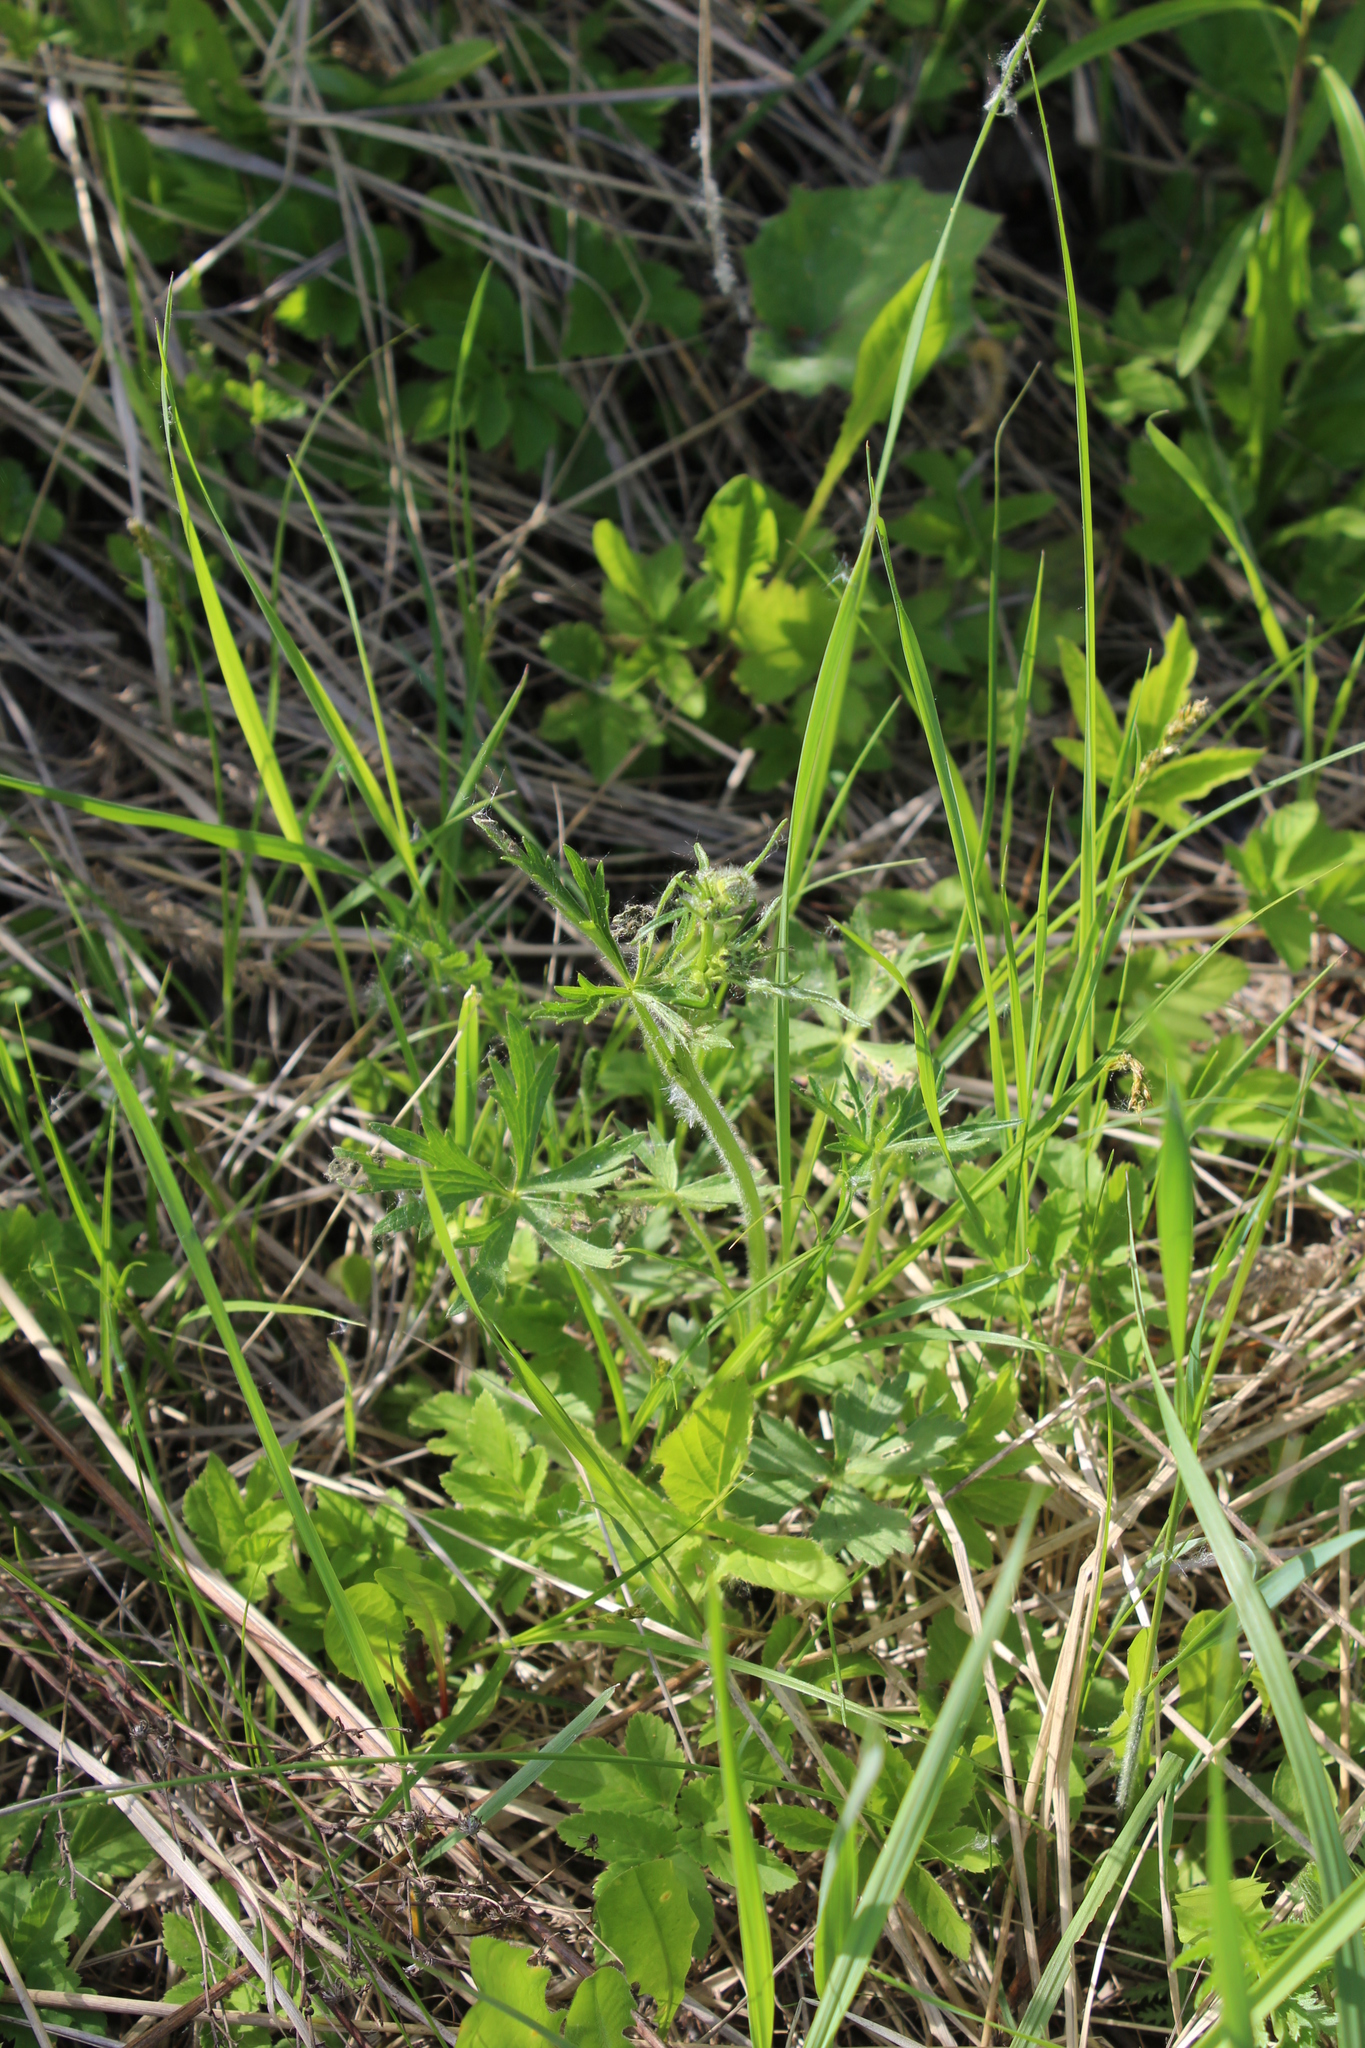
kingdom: Plantae
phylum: Tracheophyta
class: Magnoliopsida
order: Ranunculales
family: Ranunculaceae
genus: Ranunculus
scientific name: Ranunculus polyanthemos
